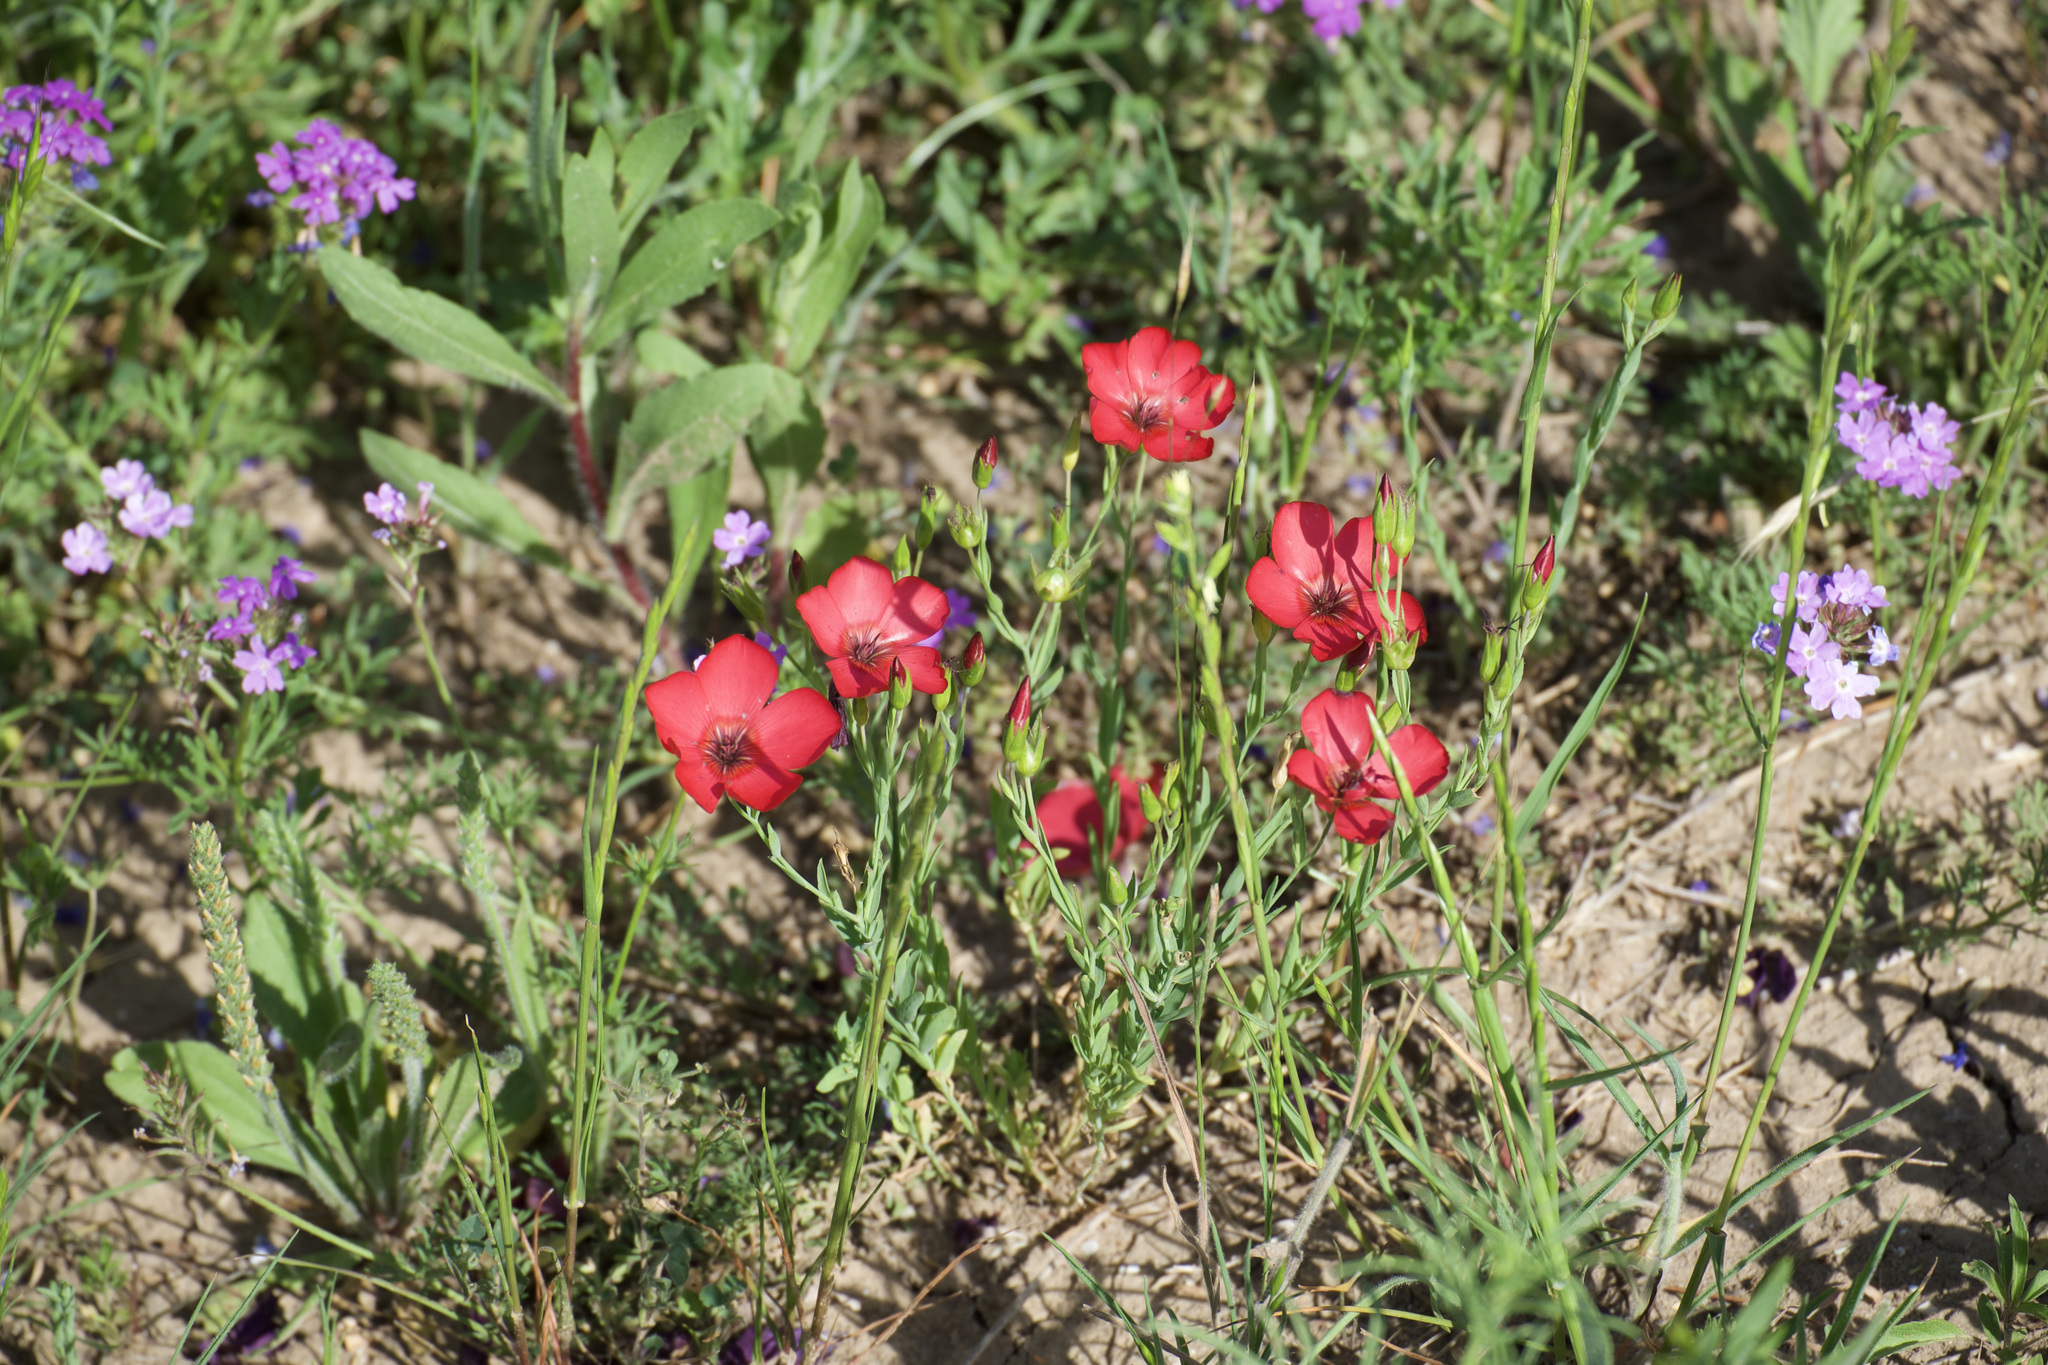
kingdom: Plantae
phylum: Tracheophyta
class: Magnoliopsida
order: Malpighiales
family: Linaceae
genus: Linum
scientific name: Linum grandiflorum
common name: Crimson flax
